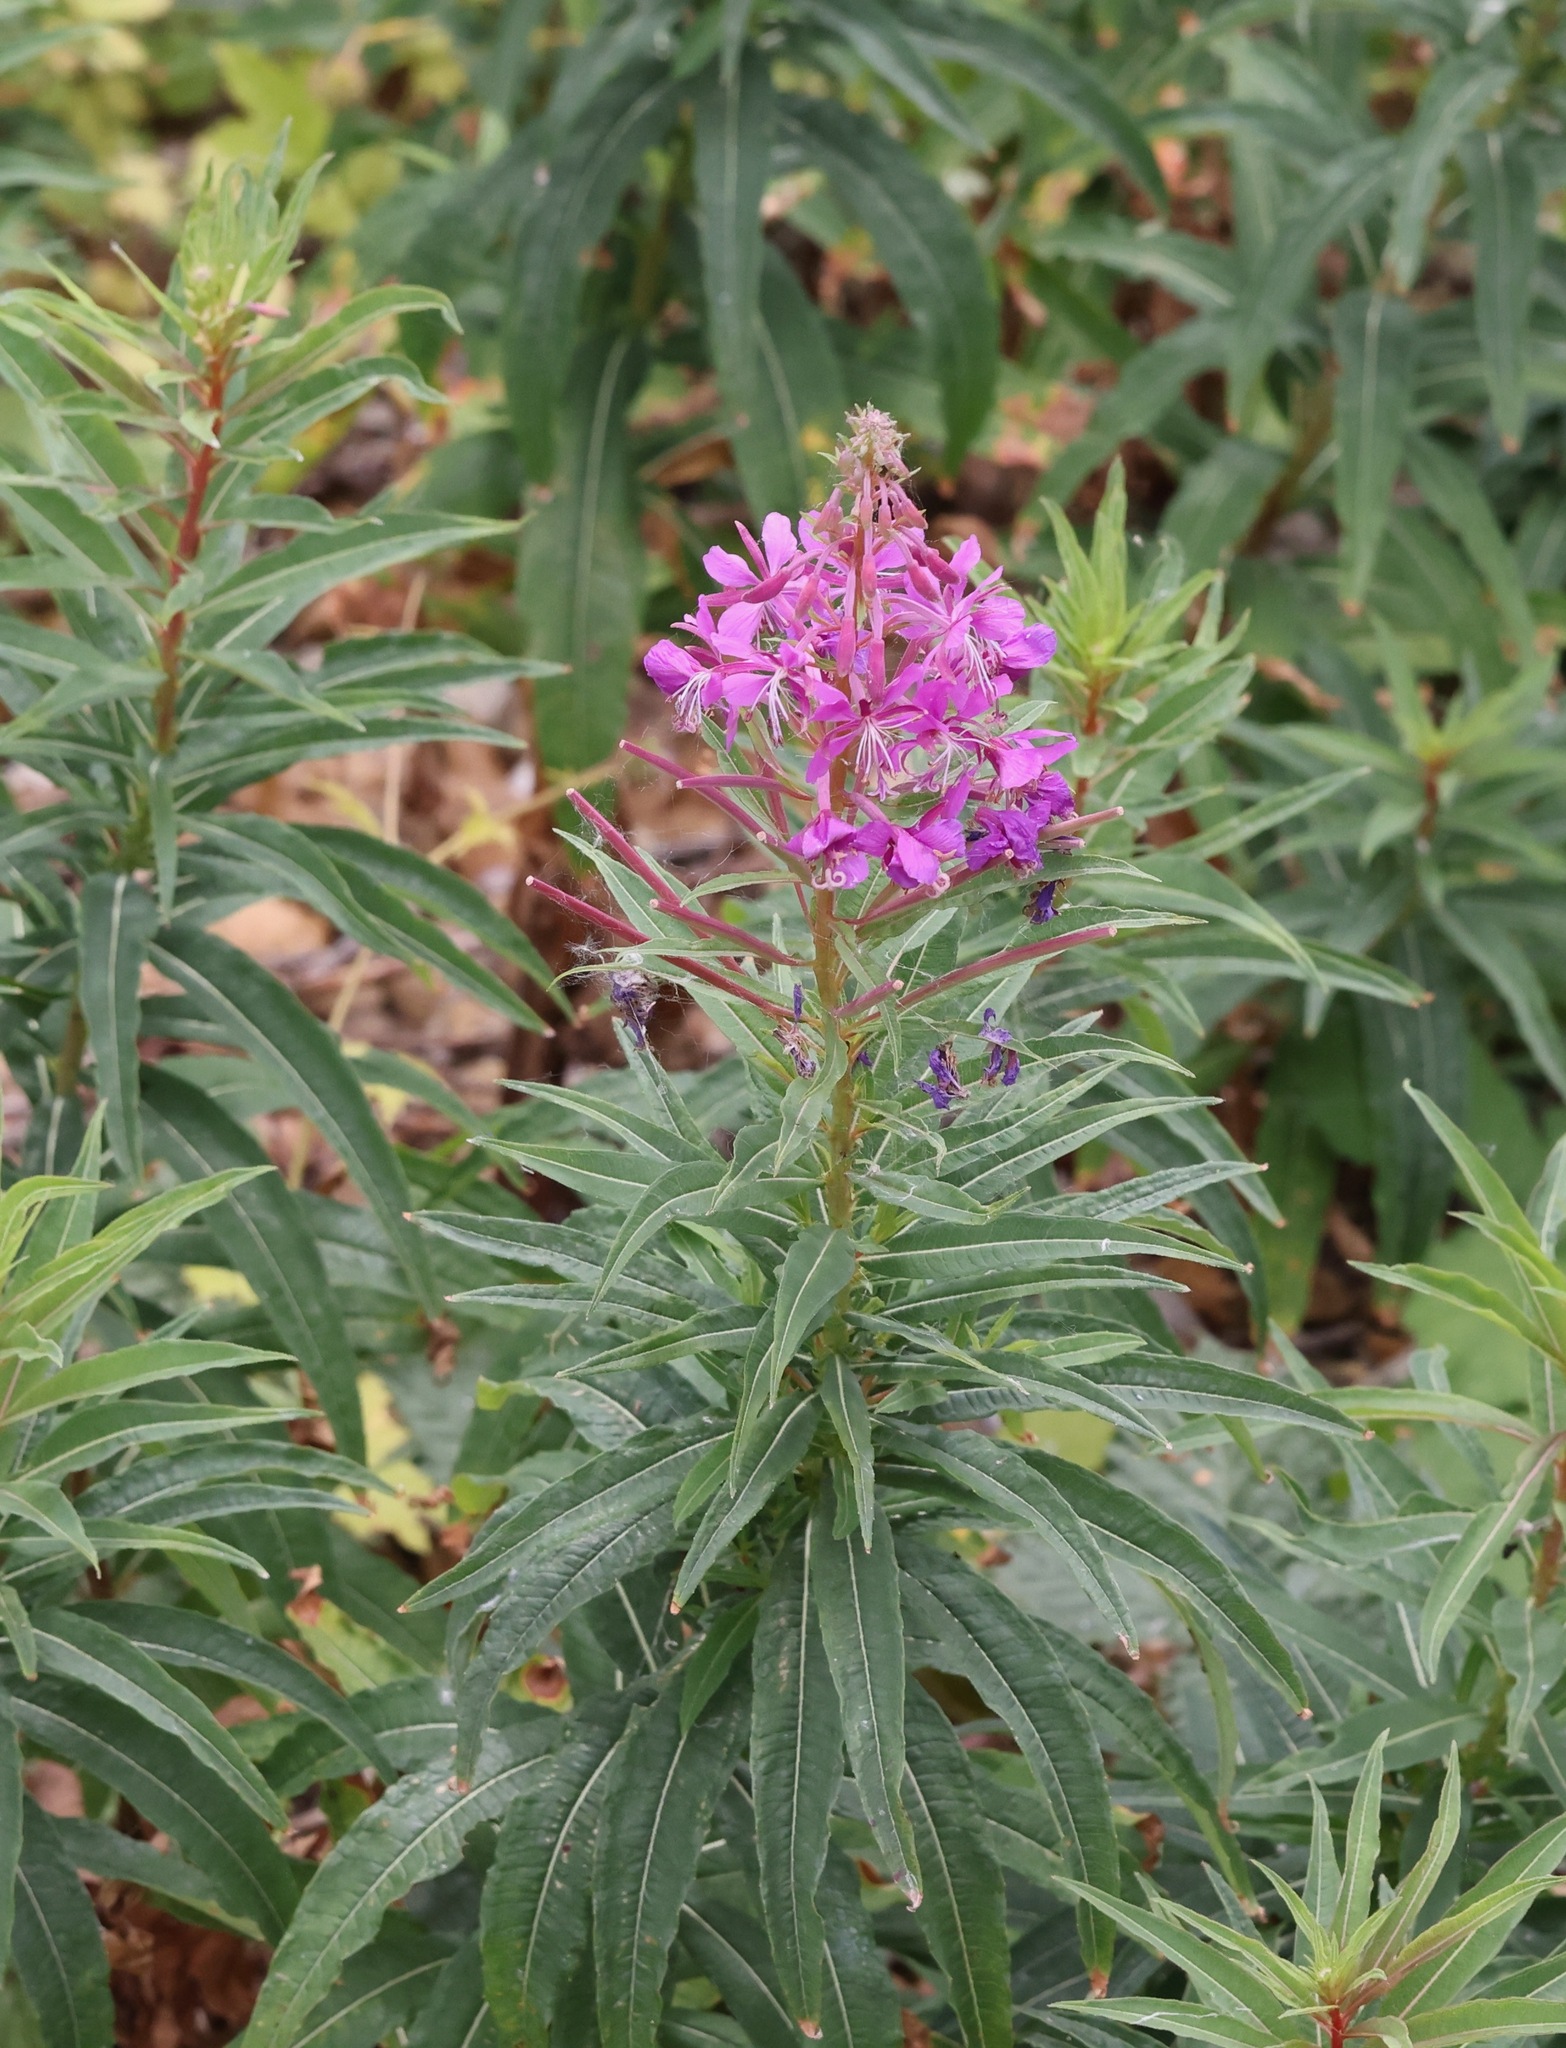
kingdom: Plantae
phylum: Tracheophyta
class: Magnoliopsida
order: Myrtales
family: Onagraceae
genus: Chamaenerion
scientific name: Chamaenerion angustifolium
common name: Fireweed
